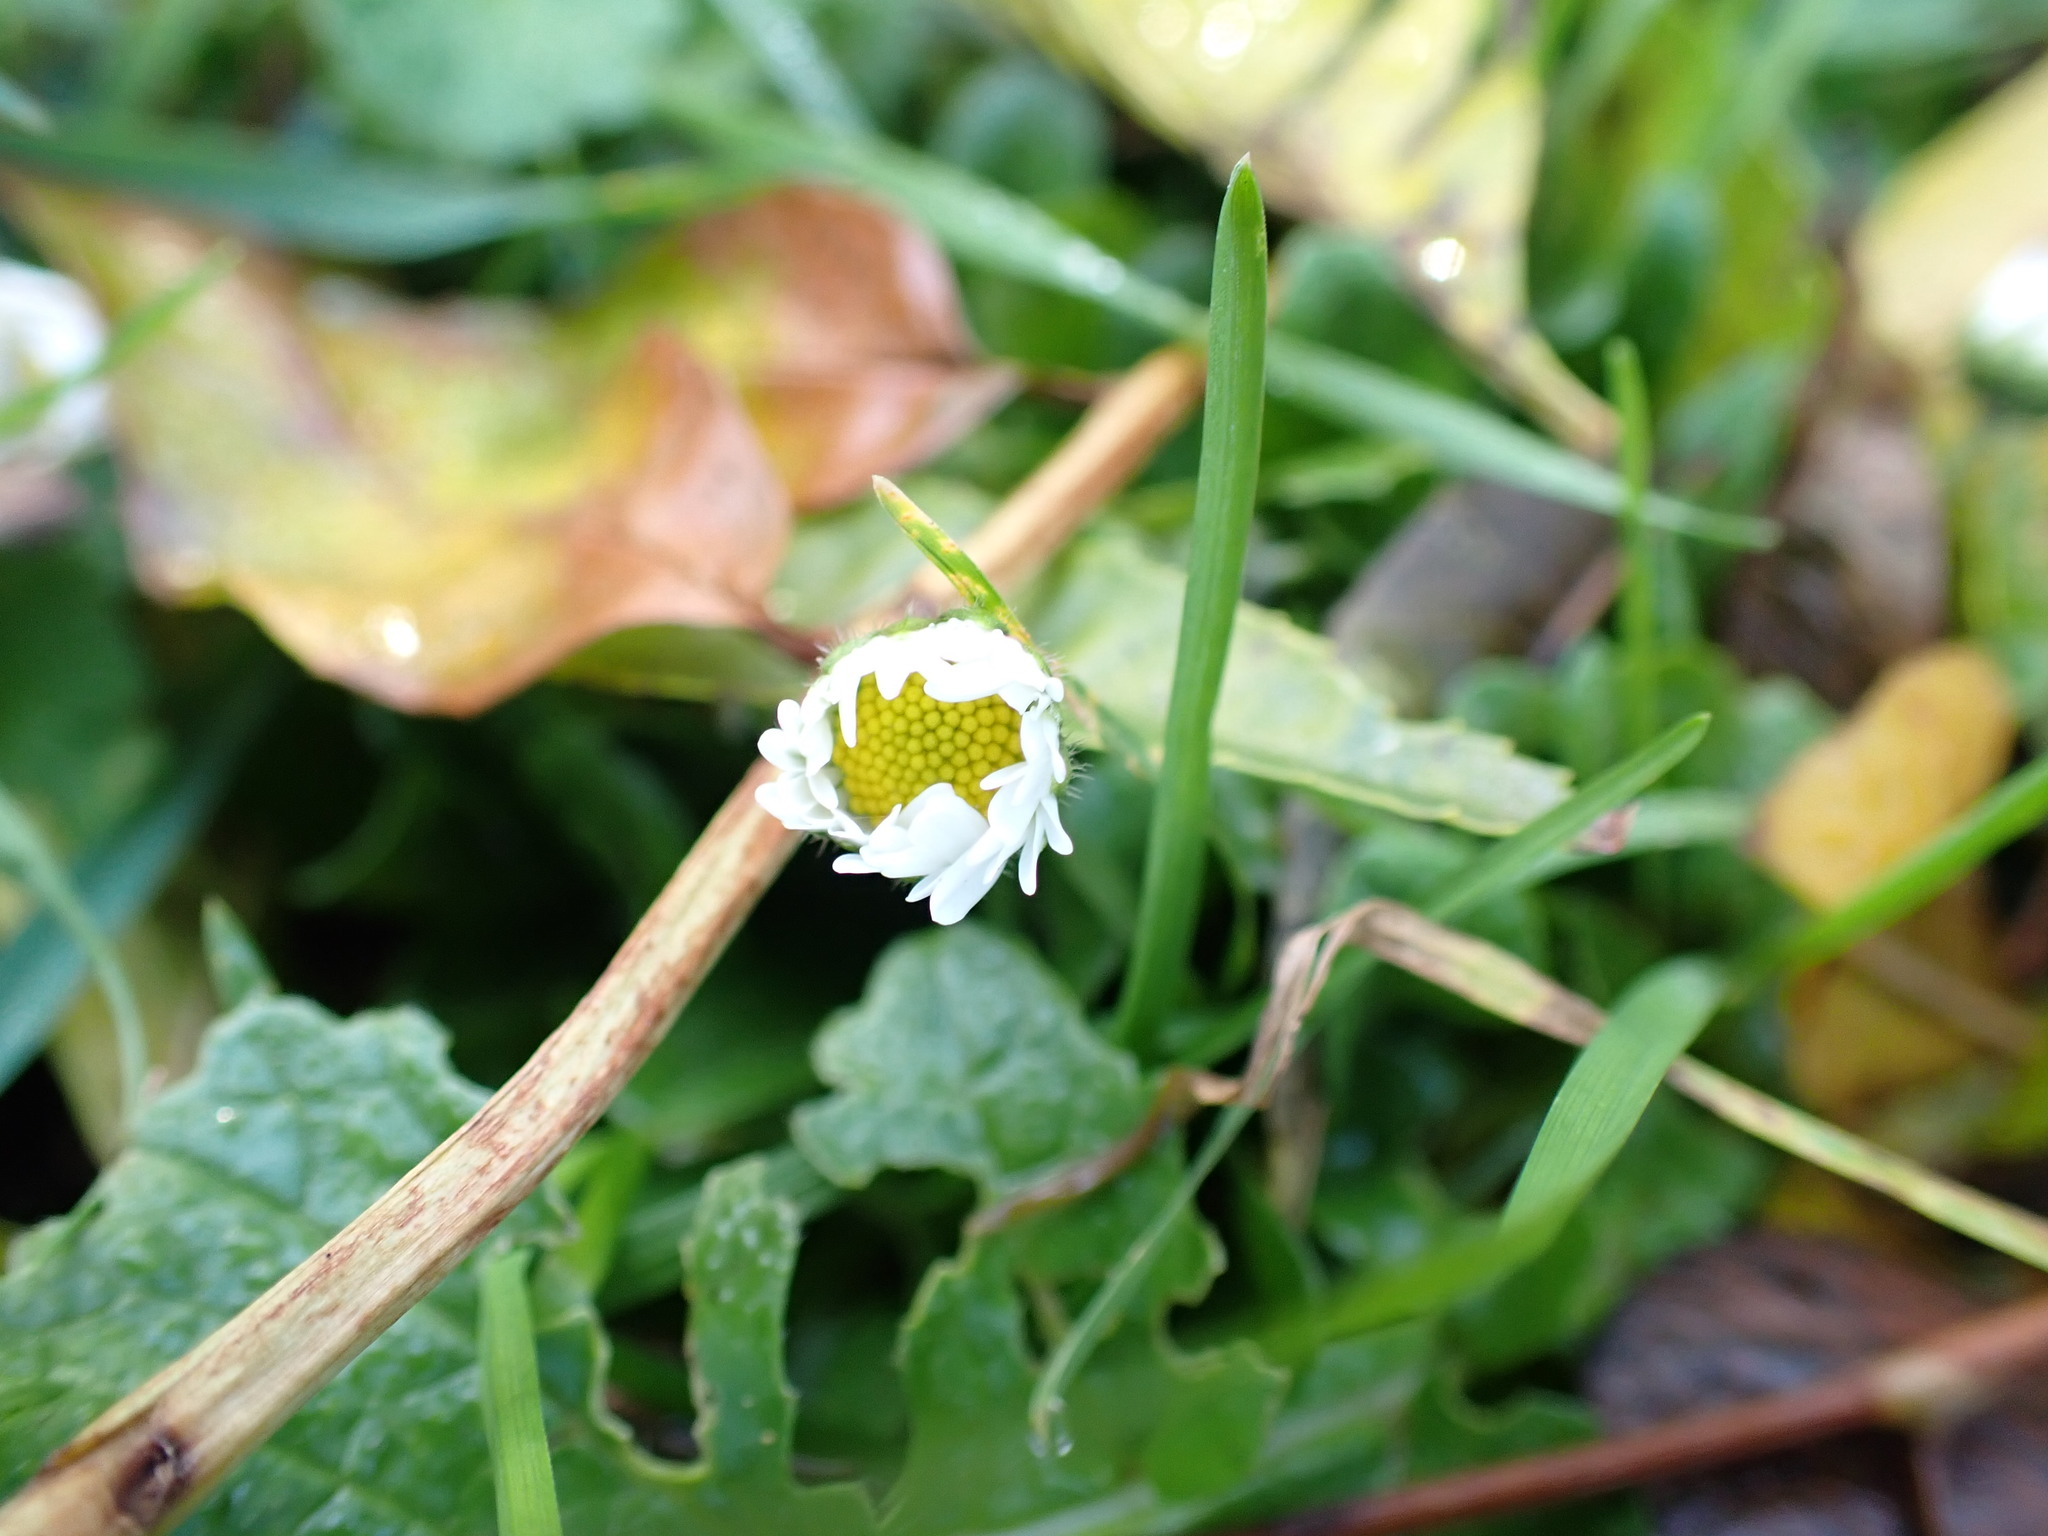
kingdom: Plantae
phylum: Tracheophyta
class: Magnoliopsida
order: Asterales
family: Asteraceae
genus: Bellis
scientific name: Bellis perennis
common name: Lawndaisy
